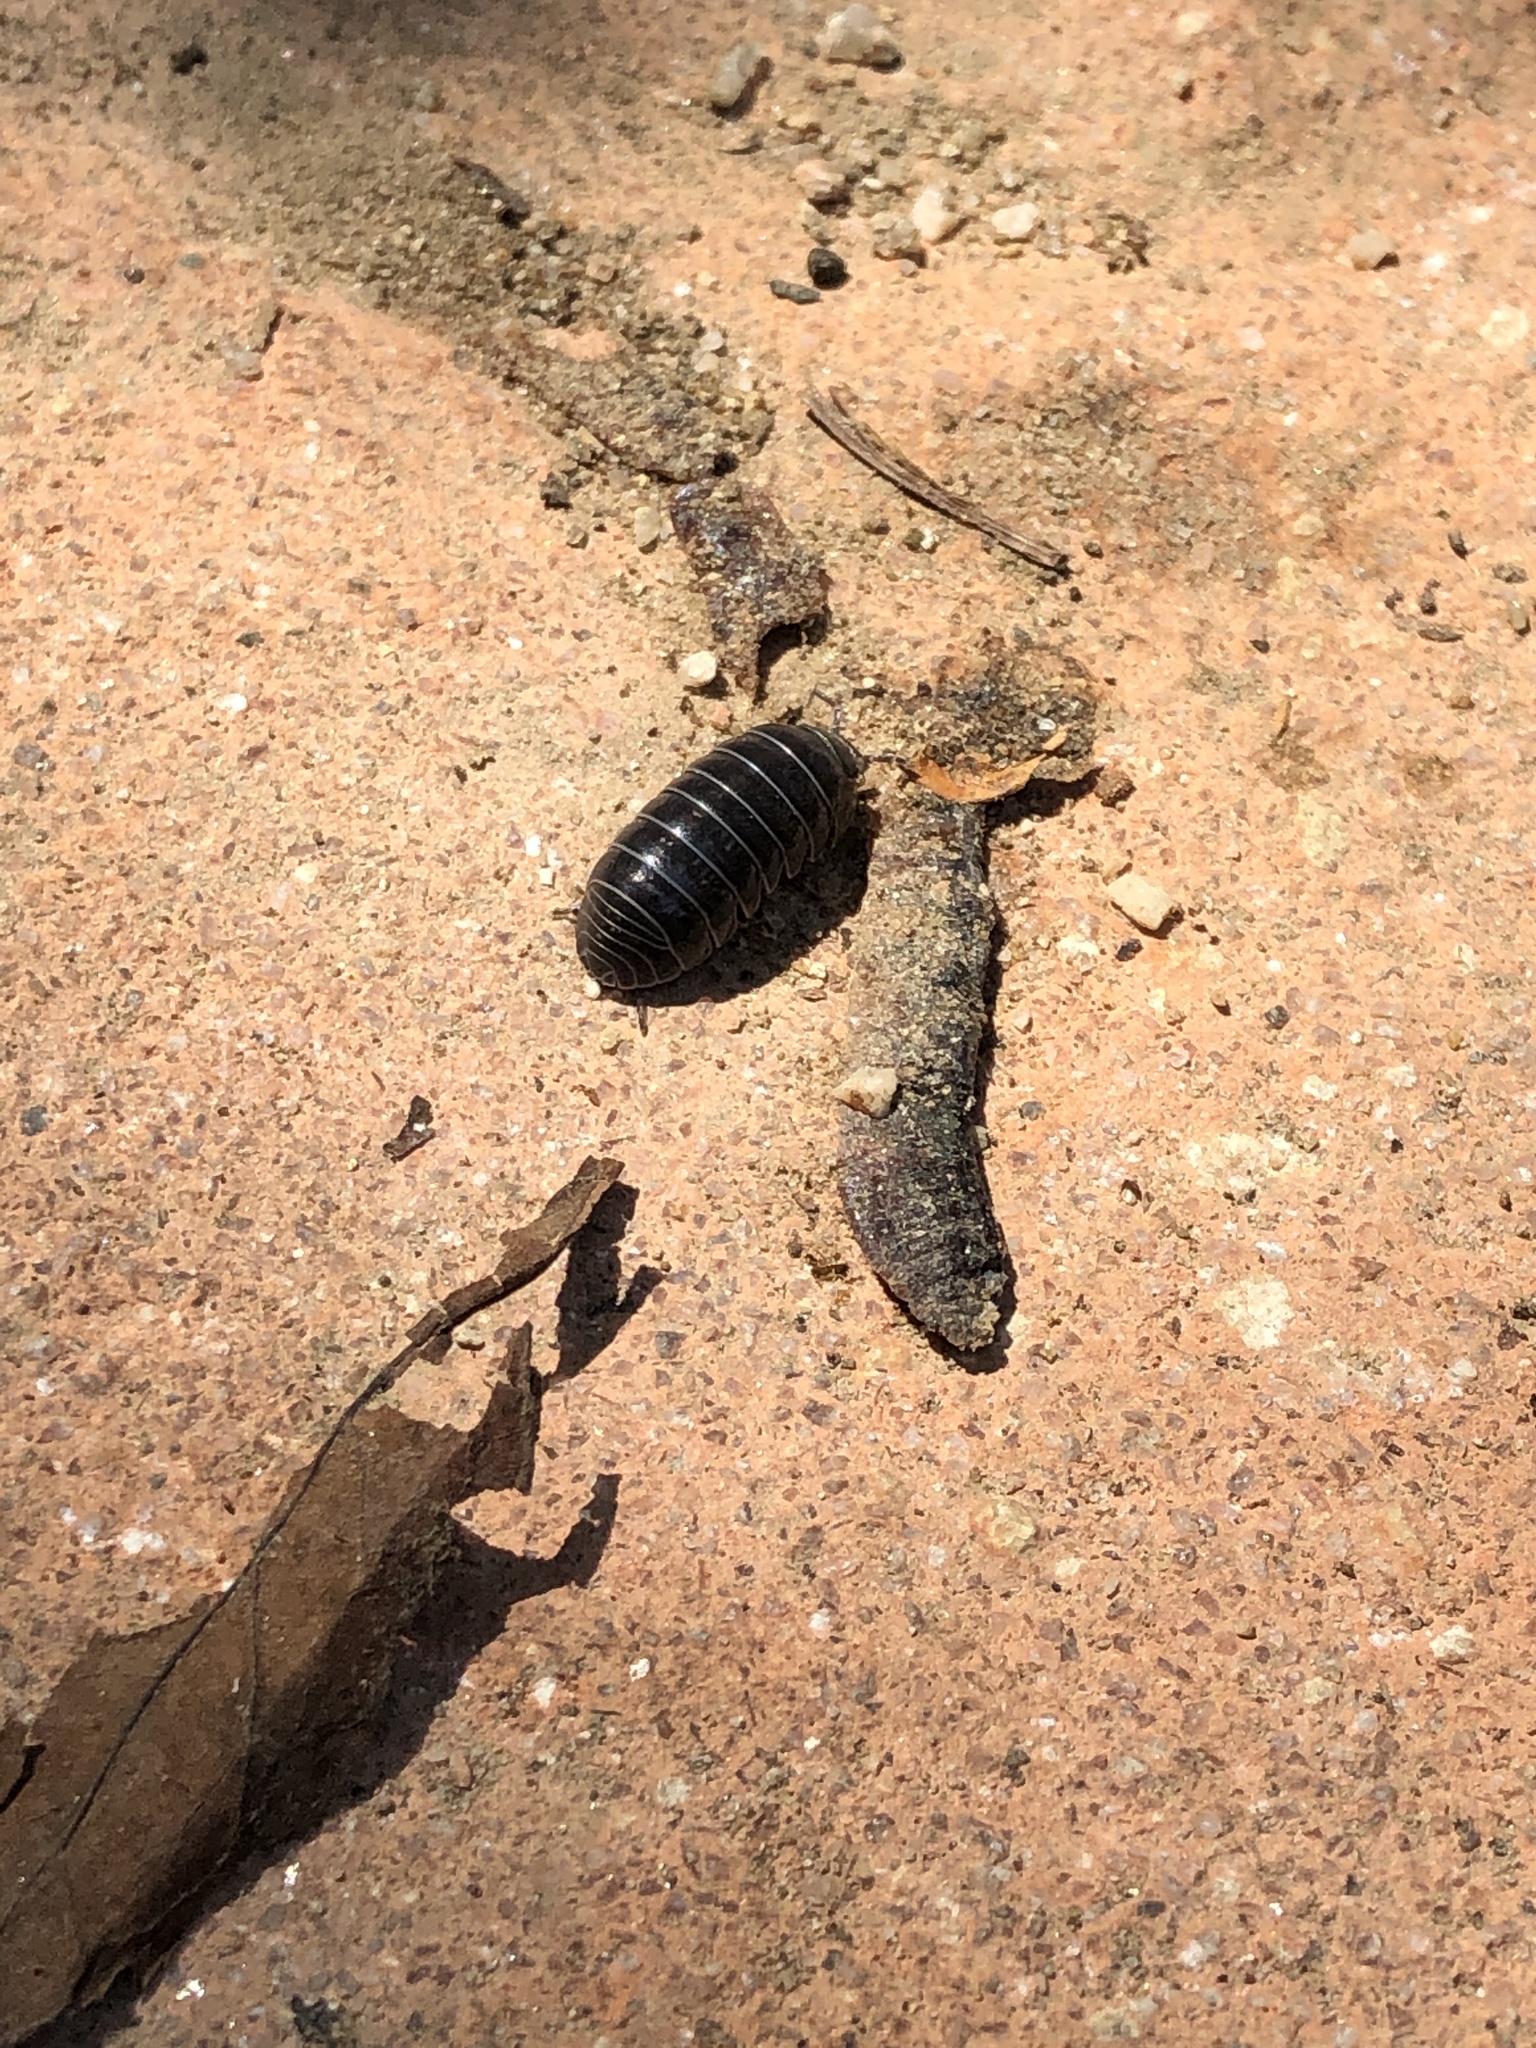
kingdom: Animalia
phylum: Arthropoda
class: Malacostraca
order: Isopoda
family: Armadillidiidae
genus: Armadillidium
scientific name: Armadillidium vulgare
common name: Common pill woodlouse
